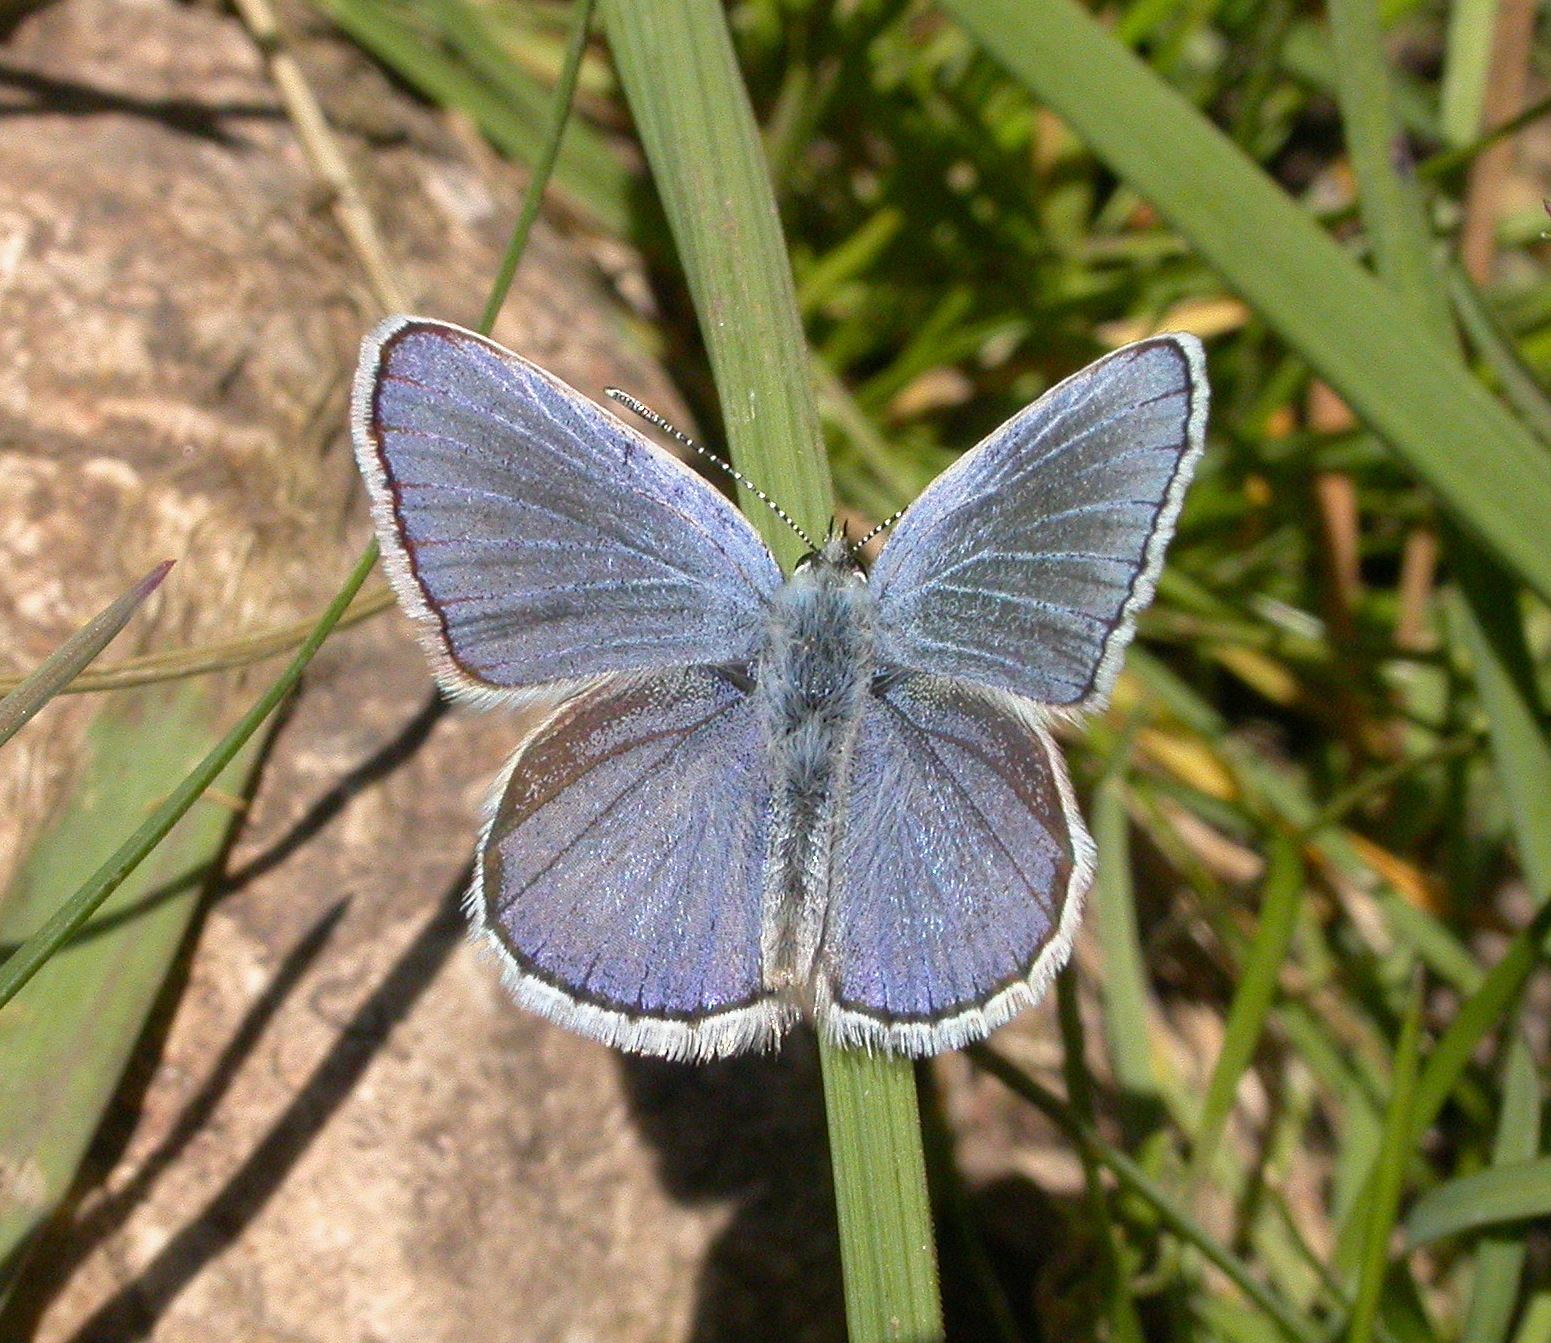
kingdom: Animalia
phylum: Arthropoda
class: Insecta
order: Lepidoptera
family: Lycaenidae
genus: Lycaeides
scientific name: Lycaeides melissa
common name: Melissa blue
